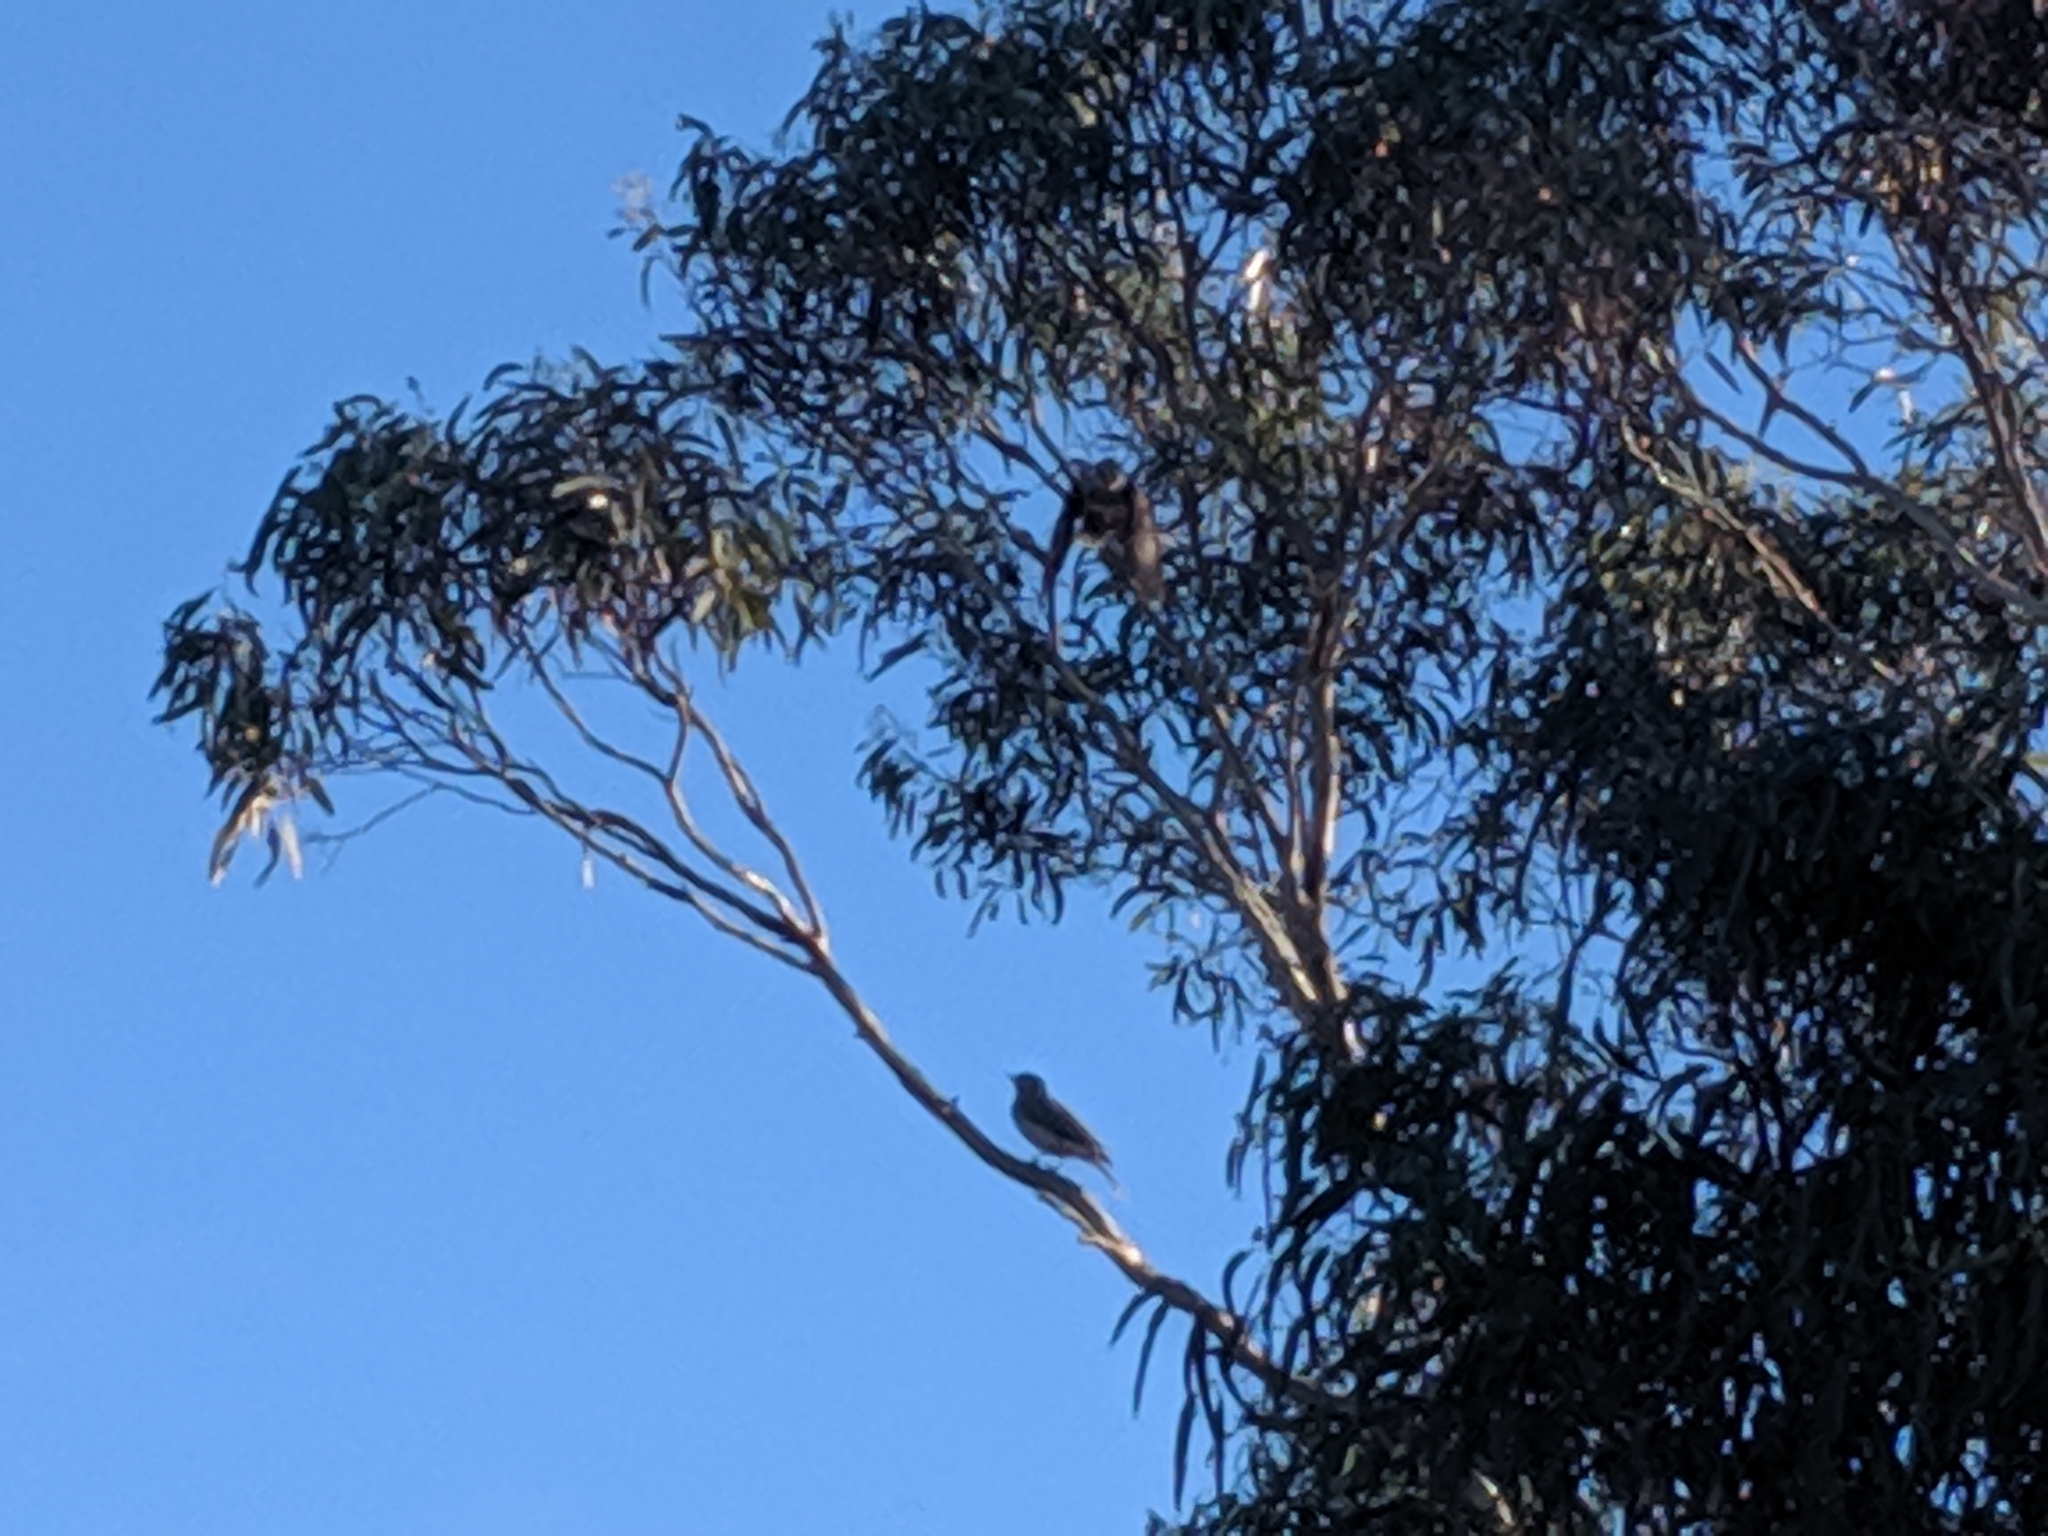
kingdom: Animalia
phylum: Chordata
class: Aves
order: Passeriformes
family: Meliphagidae
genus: Manorina
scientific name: Manorina melanocephala
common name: Noisy miner
